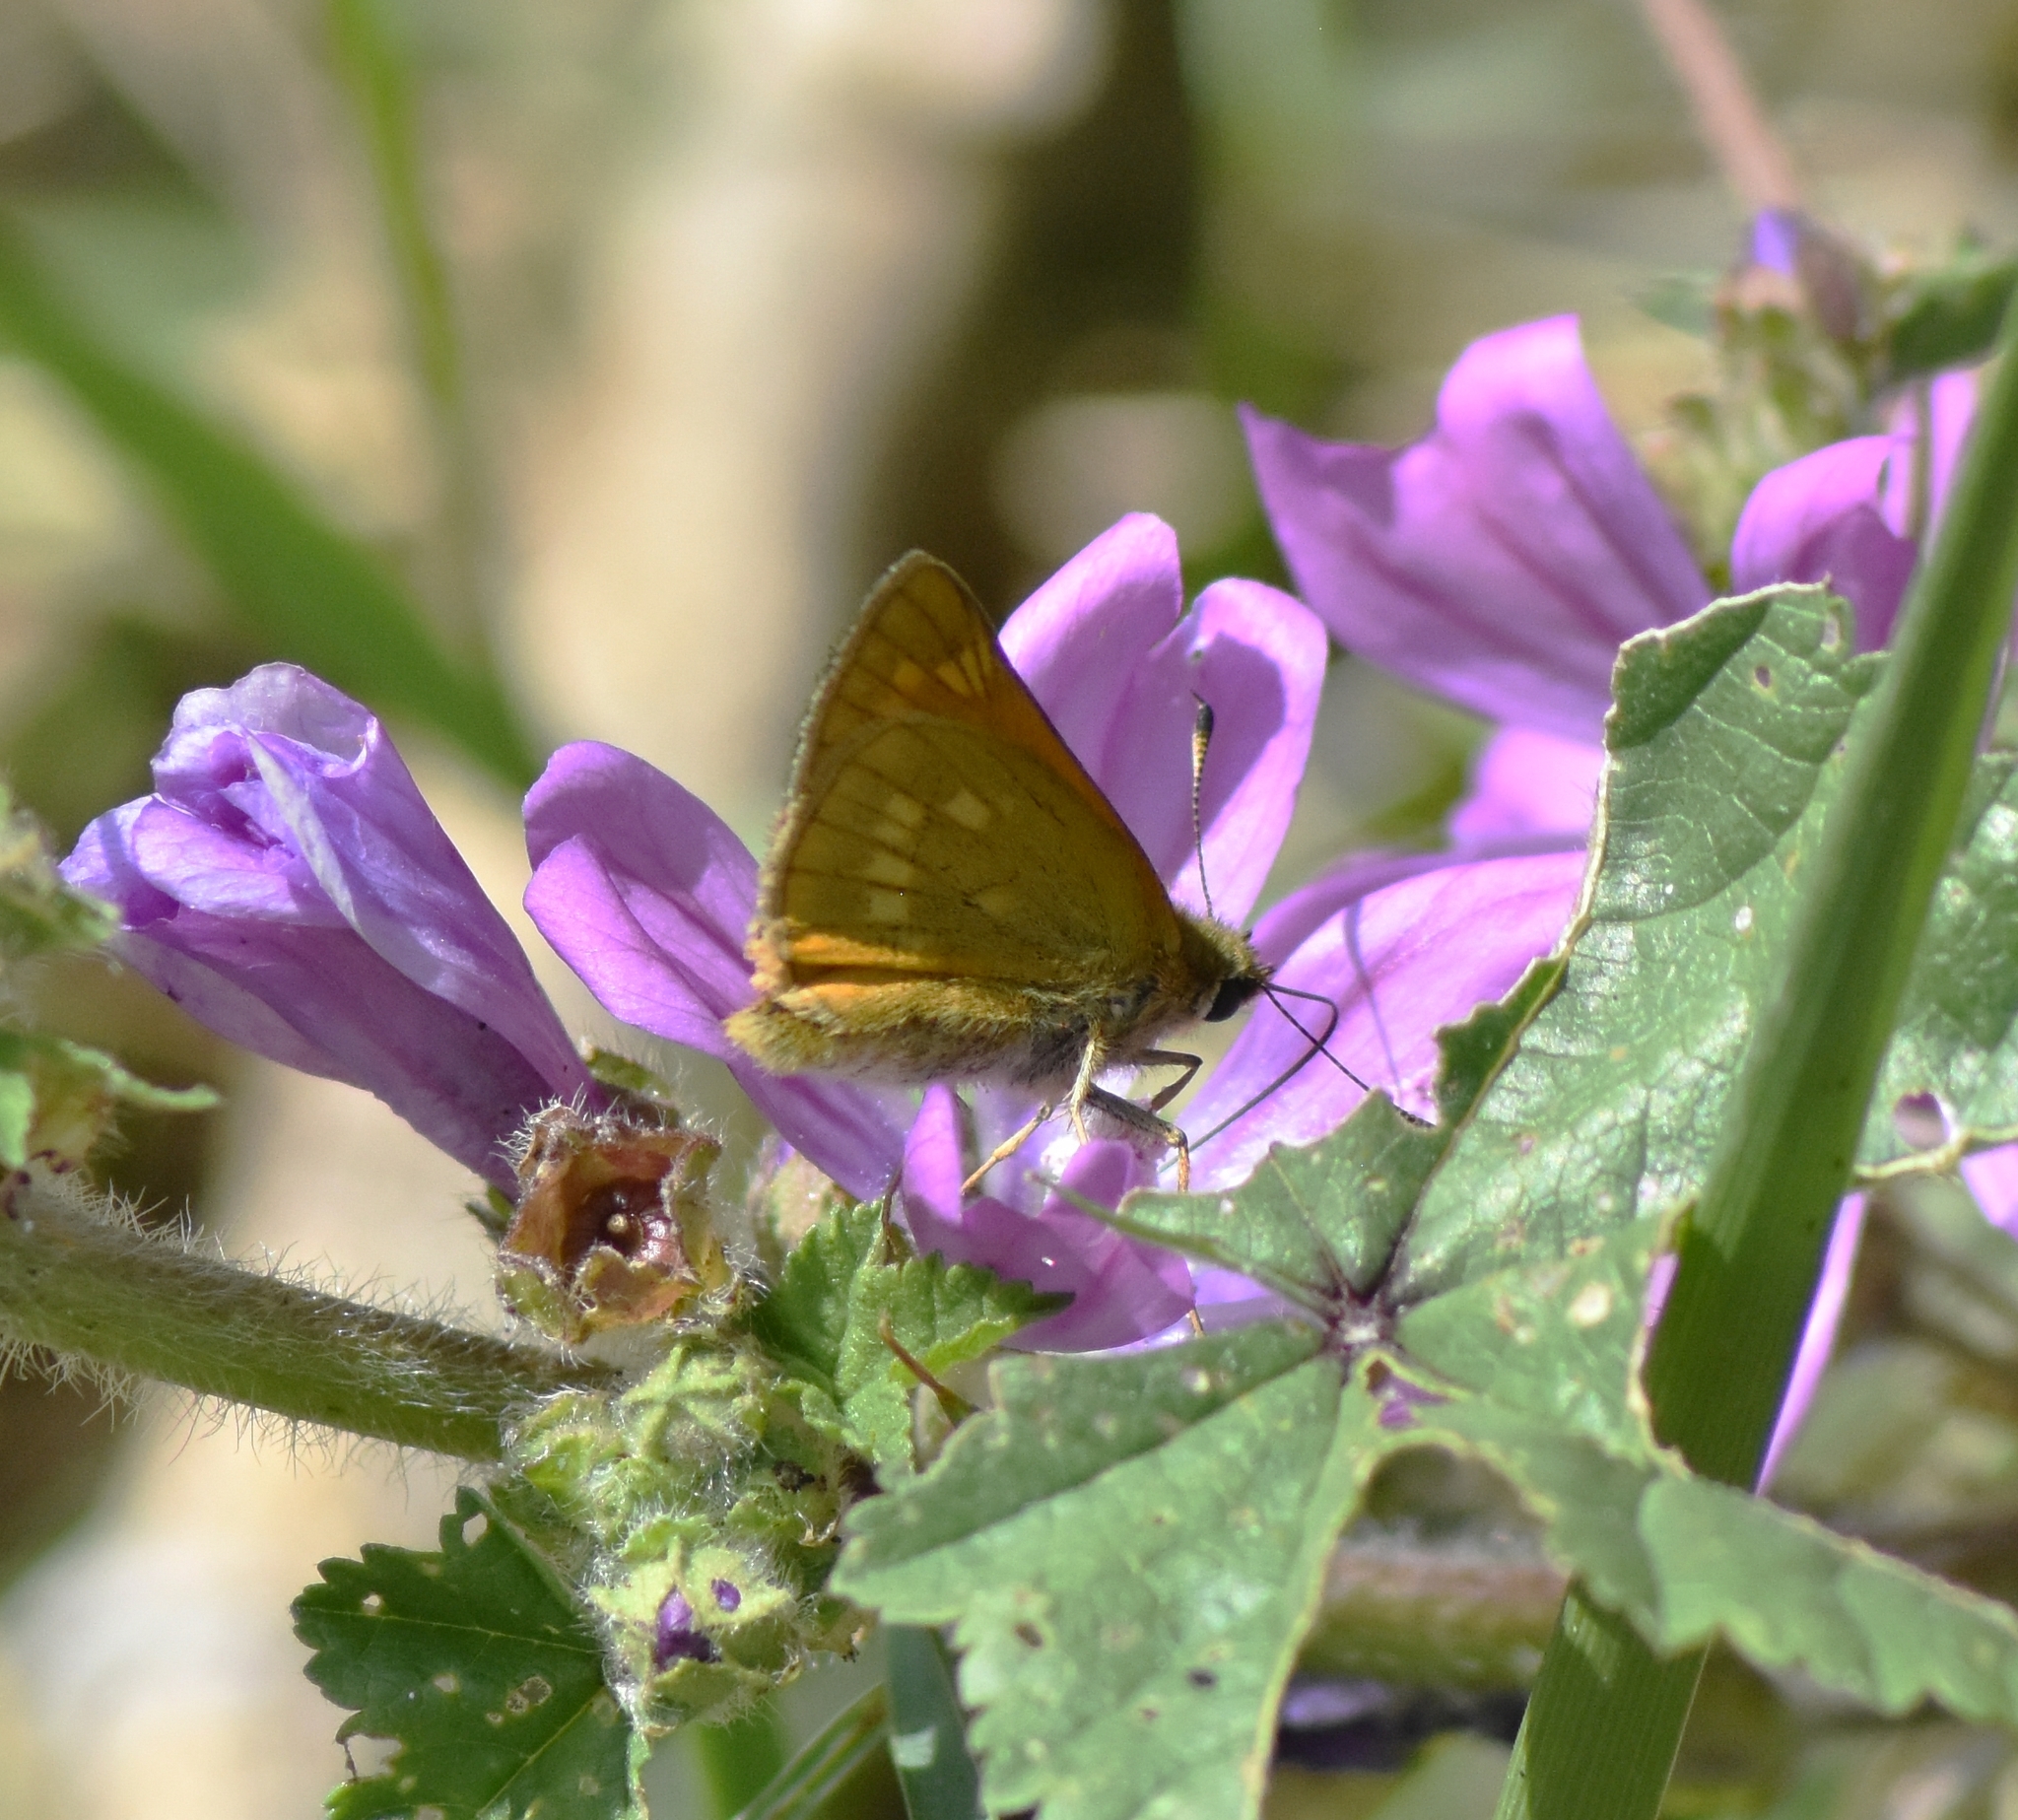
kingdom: Animalia
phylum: Arthropoda
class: Insecta
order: Lepidoptera
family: Hesperiidae
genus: Ochlodes
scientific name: Ochlodes venata
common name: Large skipper
